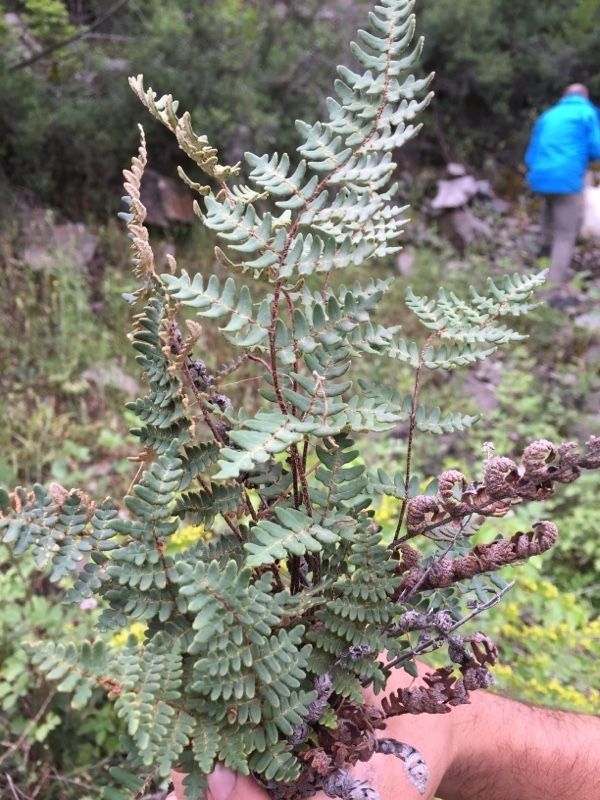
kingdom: Plantae
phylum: Tracheophyta
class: Polypodiopsida
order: Polypodiales
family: Pteridaceae
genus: Paragymnopteris
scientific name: Paragymnopteris marantae
